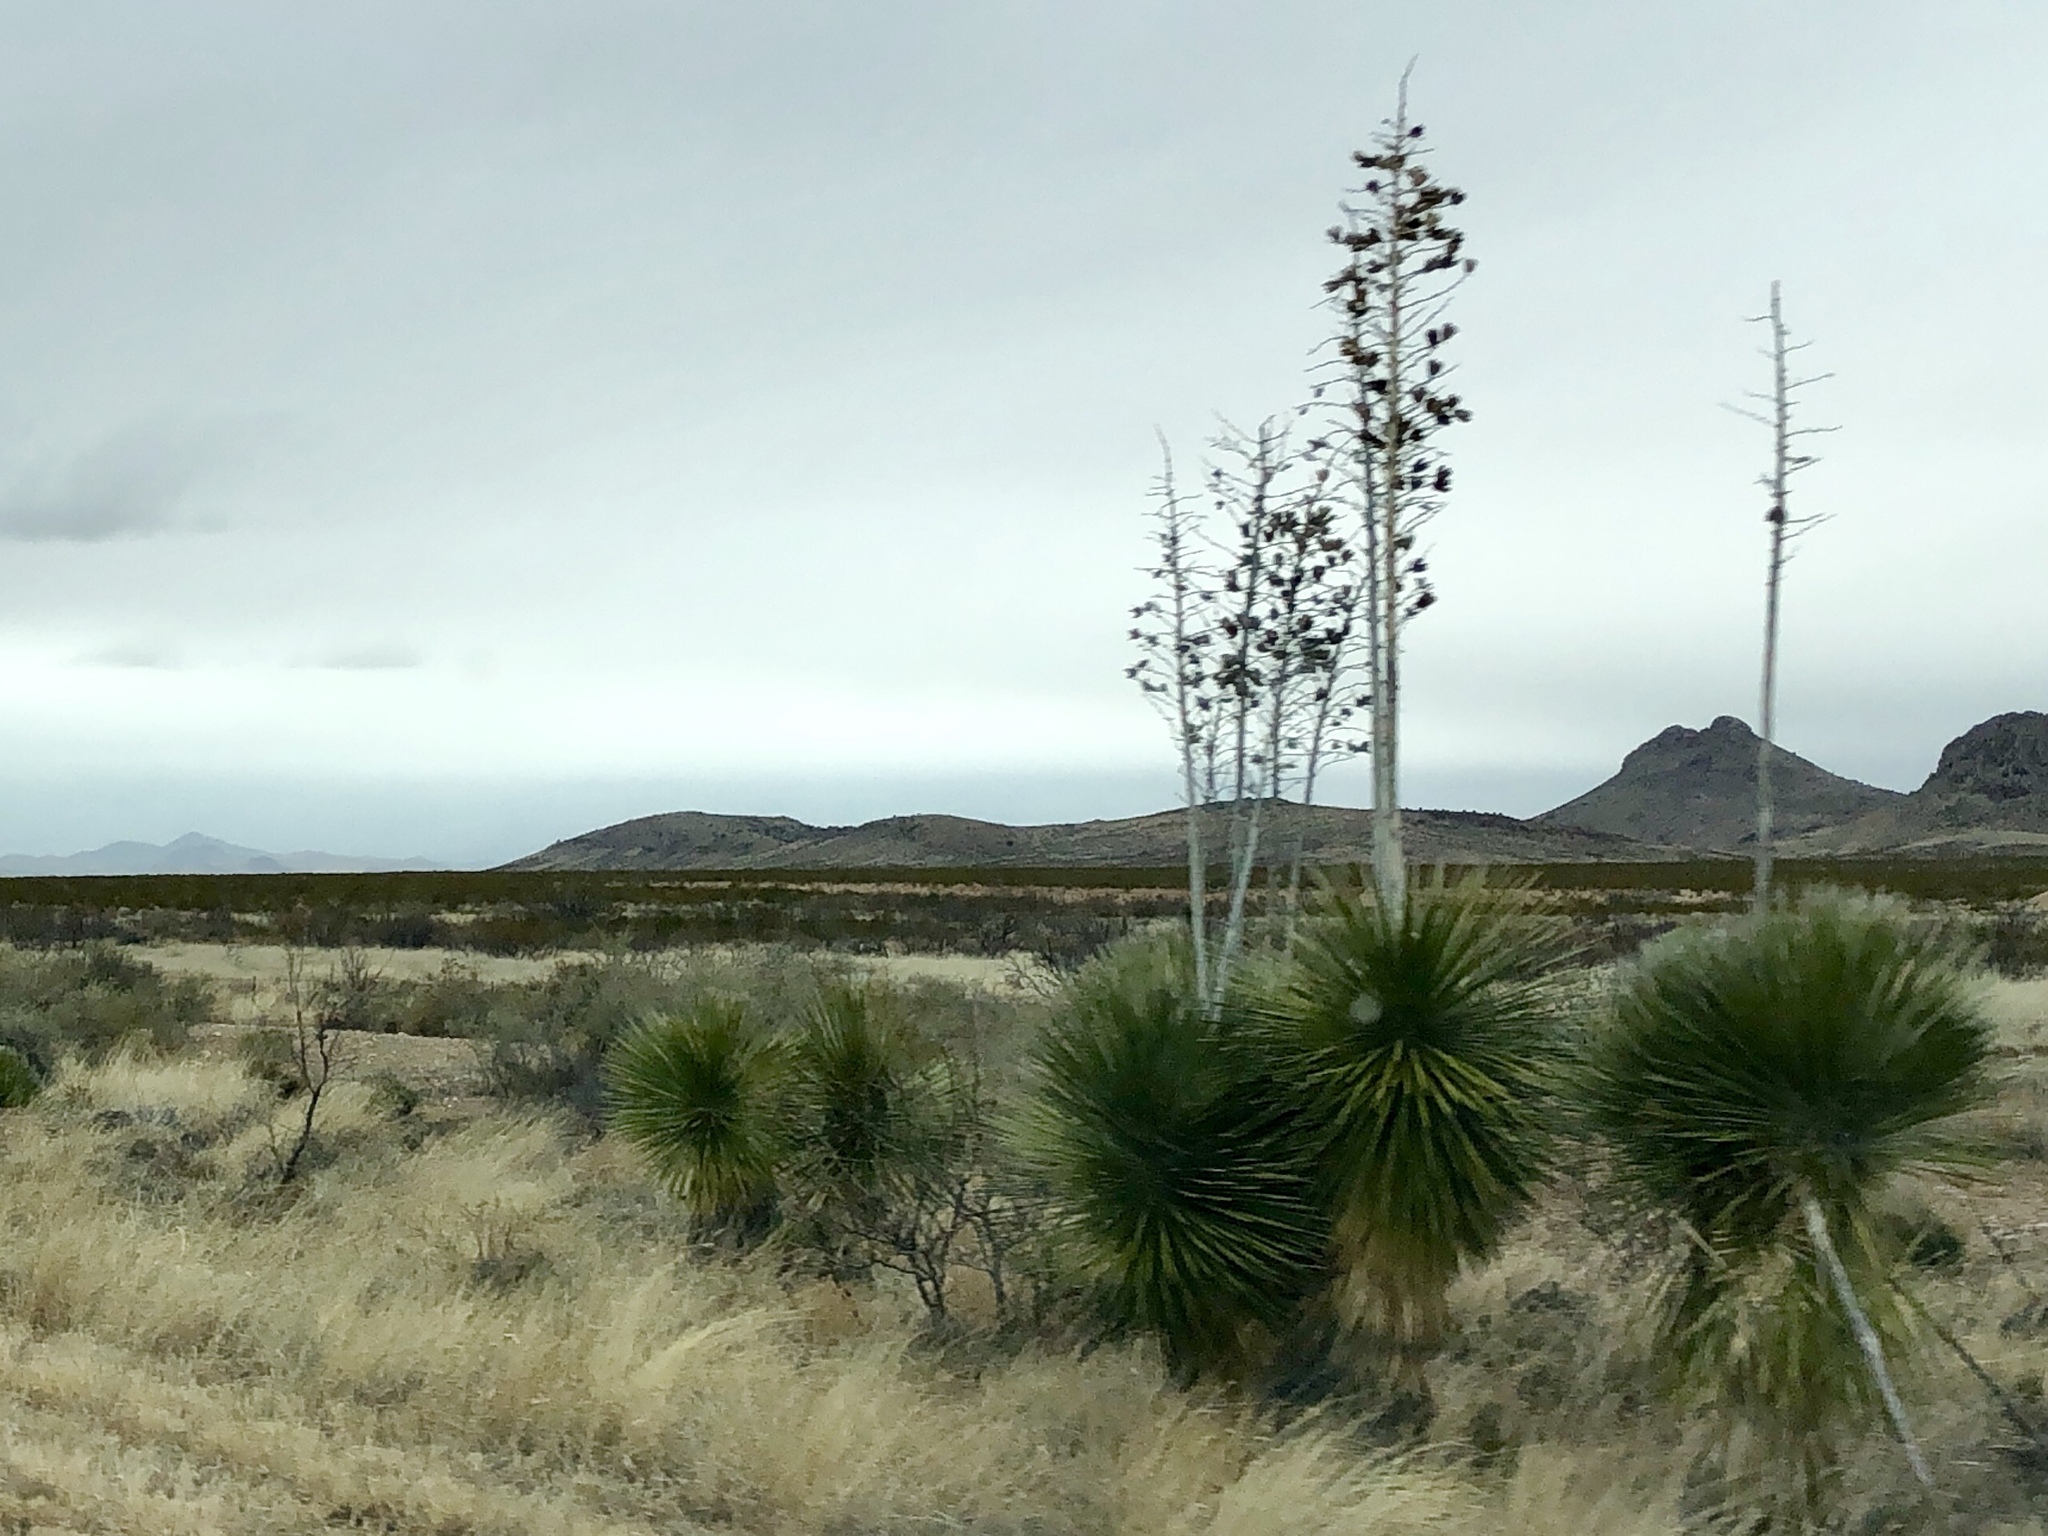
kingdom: Plantae
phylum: Tracheophyta
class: Liliopsida
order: Asparagales
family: Asparagaceae
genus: Yucca
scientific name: Yucca elata
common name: Palmella
